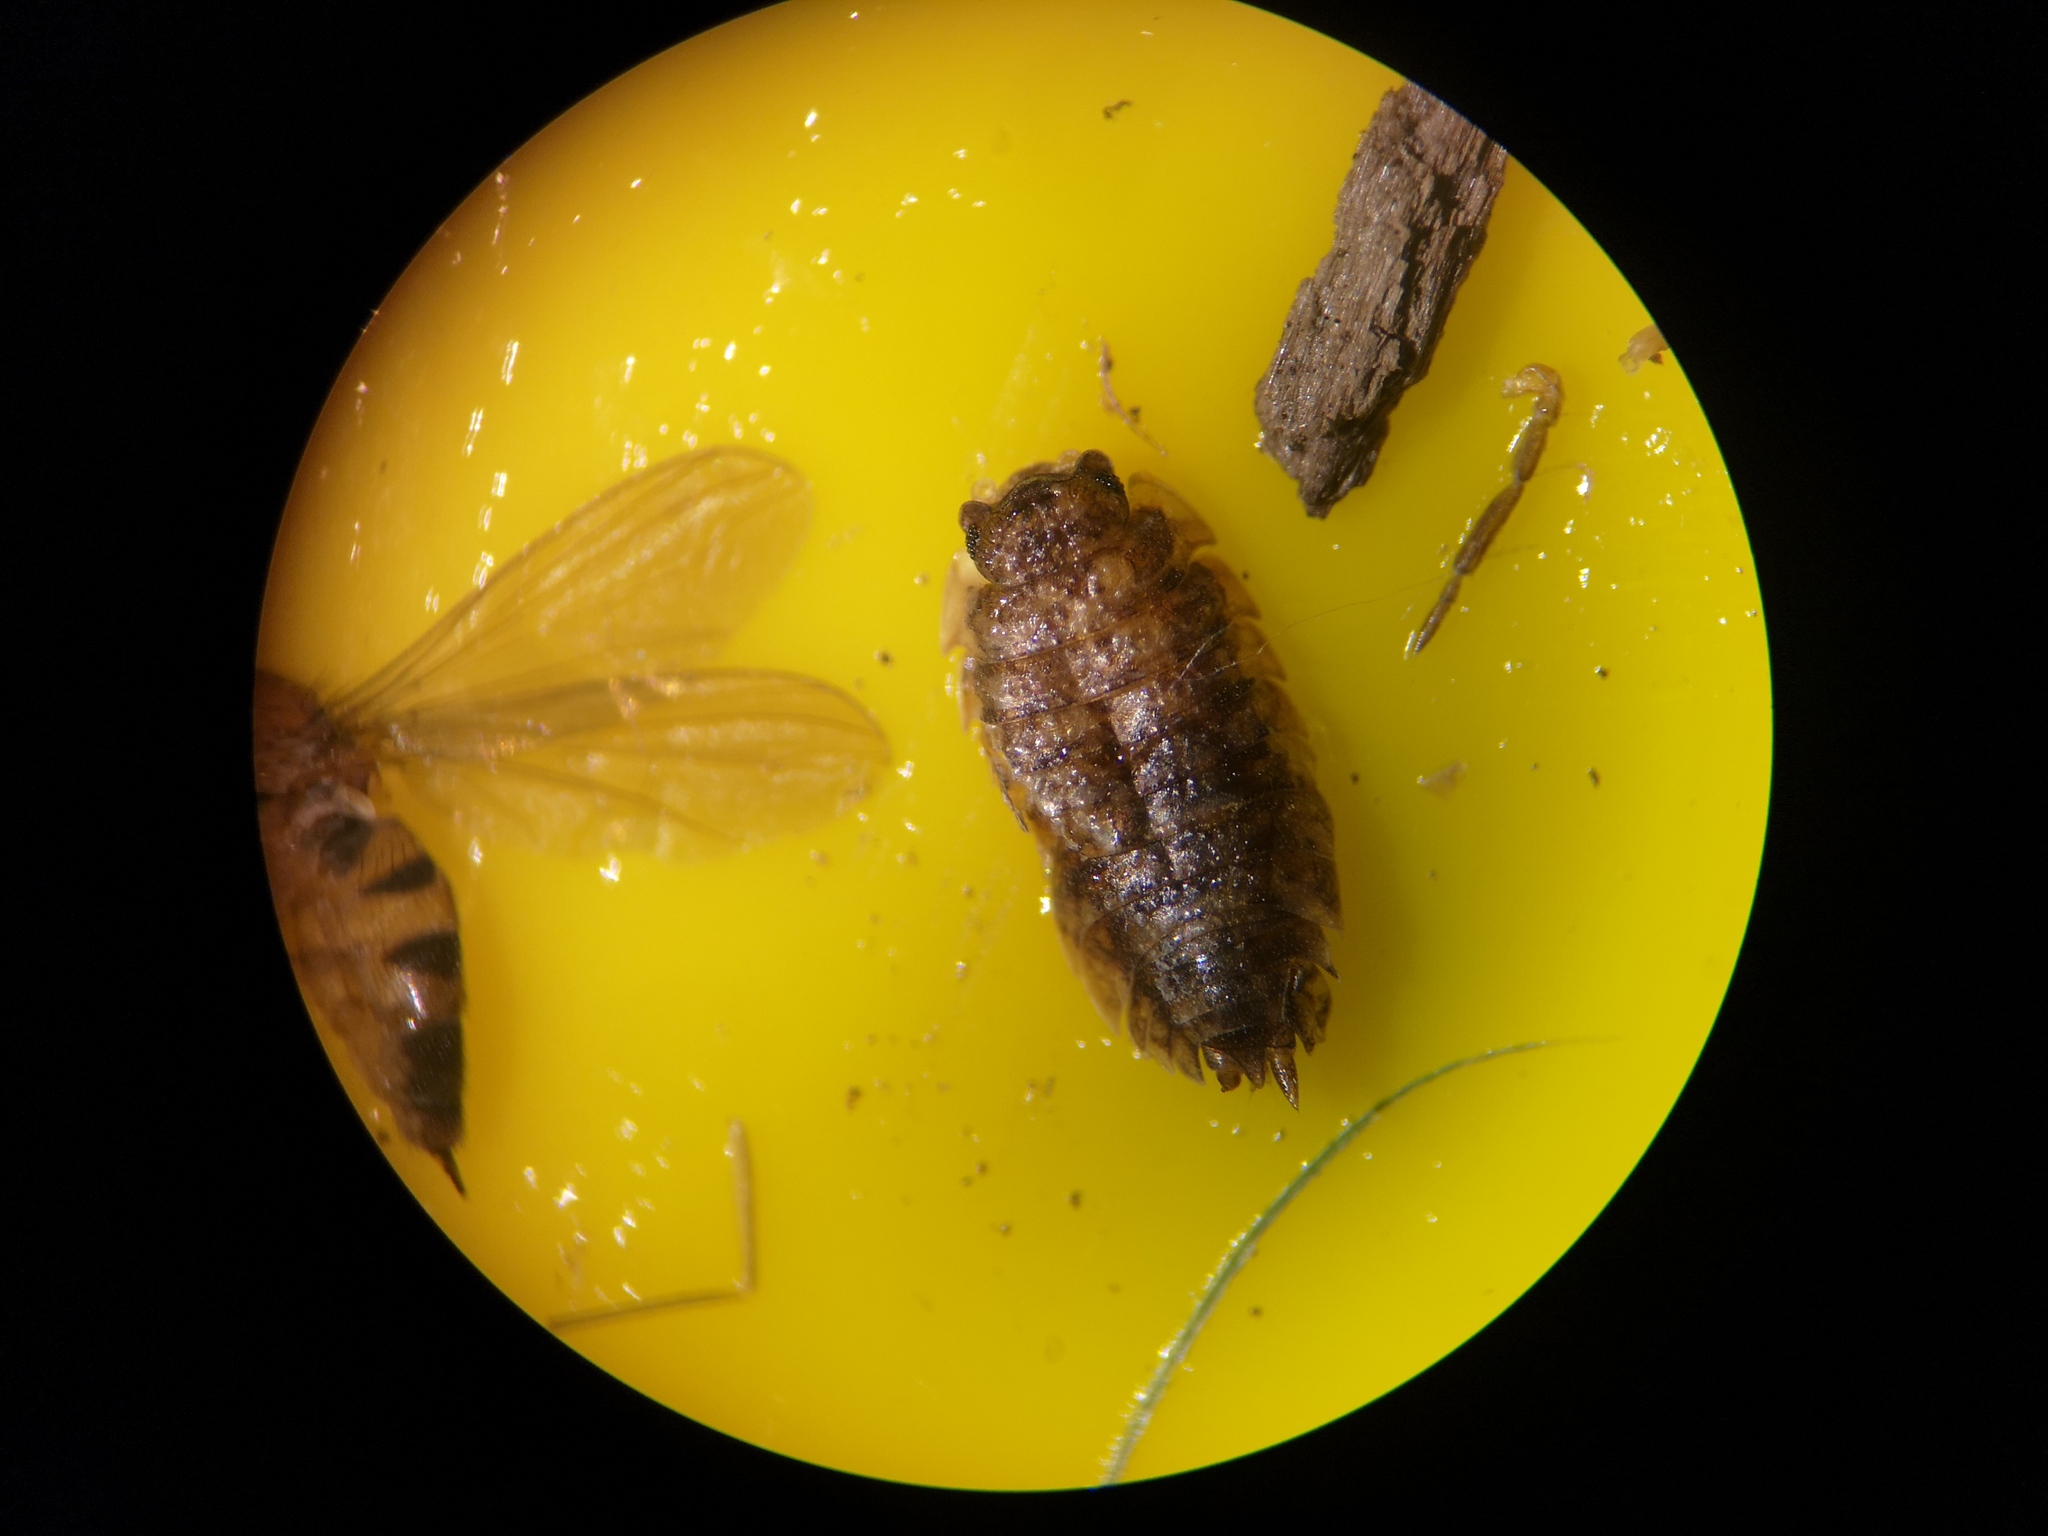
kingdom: Animalia
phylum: Arthropoda
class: Malacostraca
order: Isopoda
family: Porcellionidae
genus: Porcellio
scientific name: Porcellio scaber
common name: Common rough woodlouse
